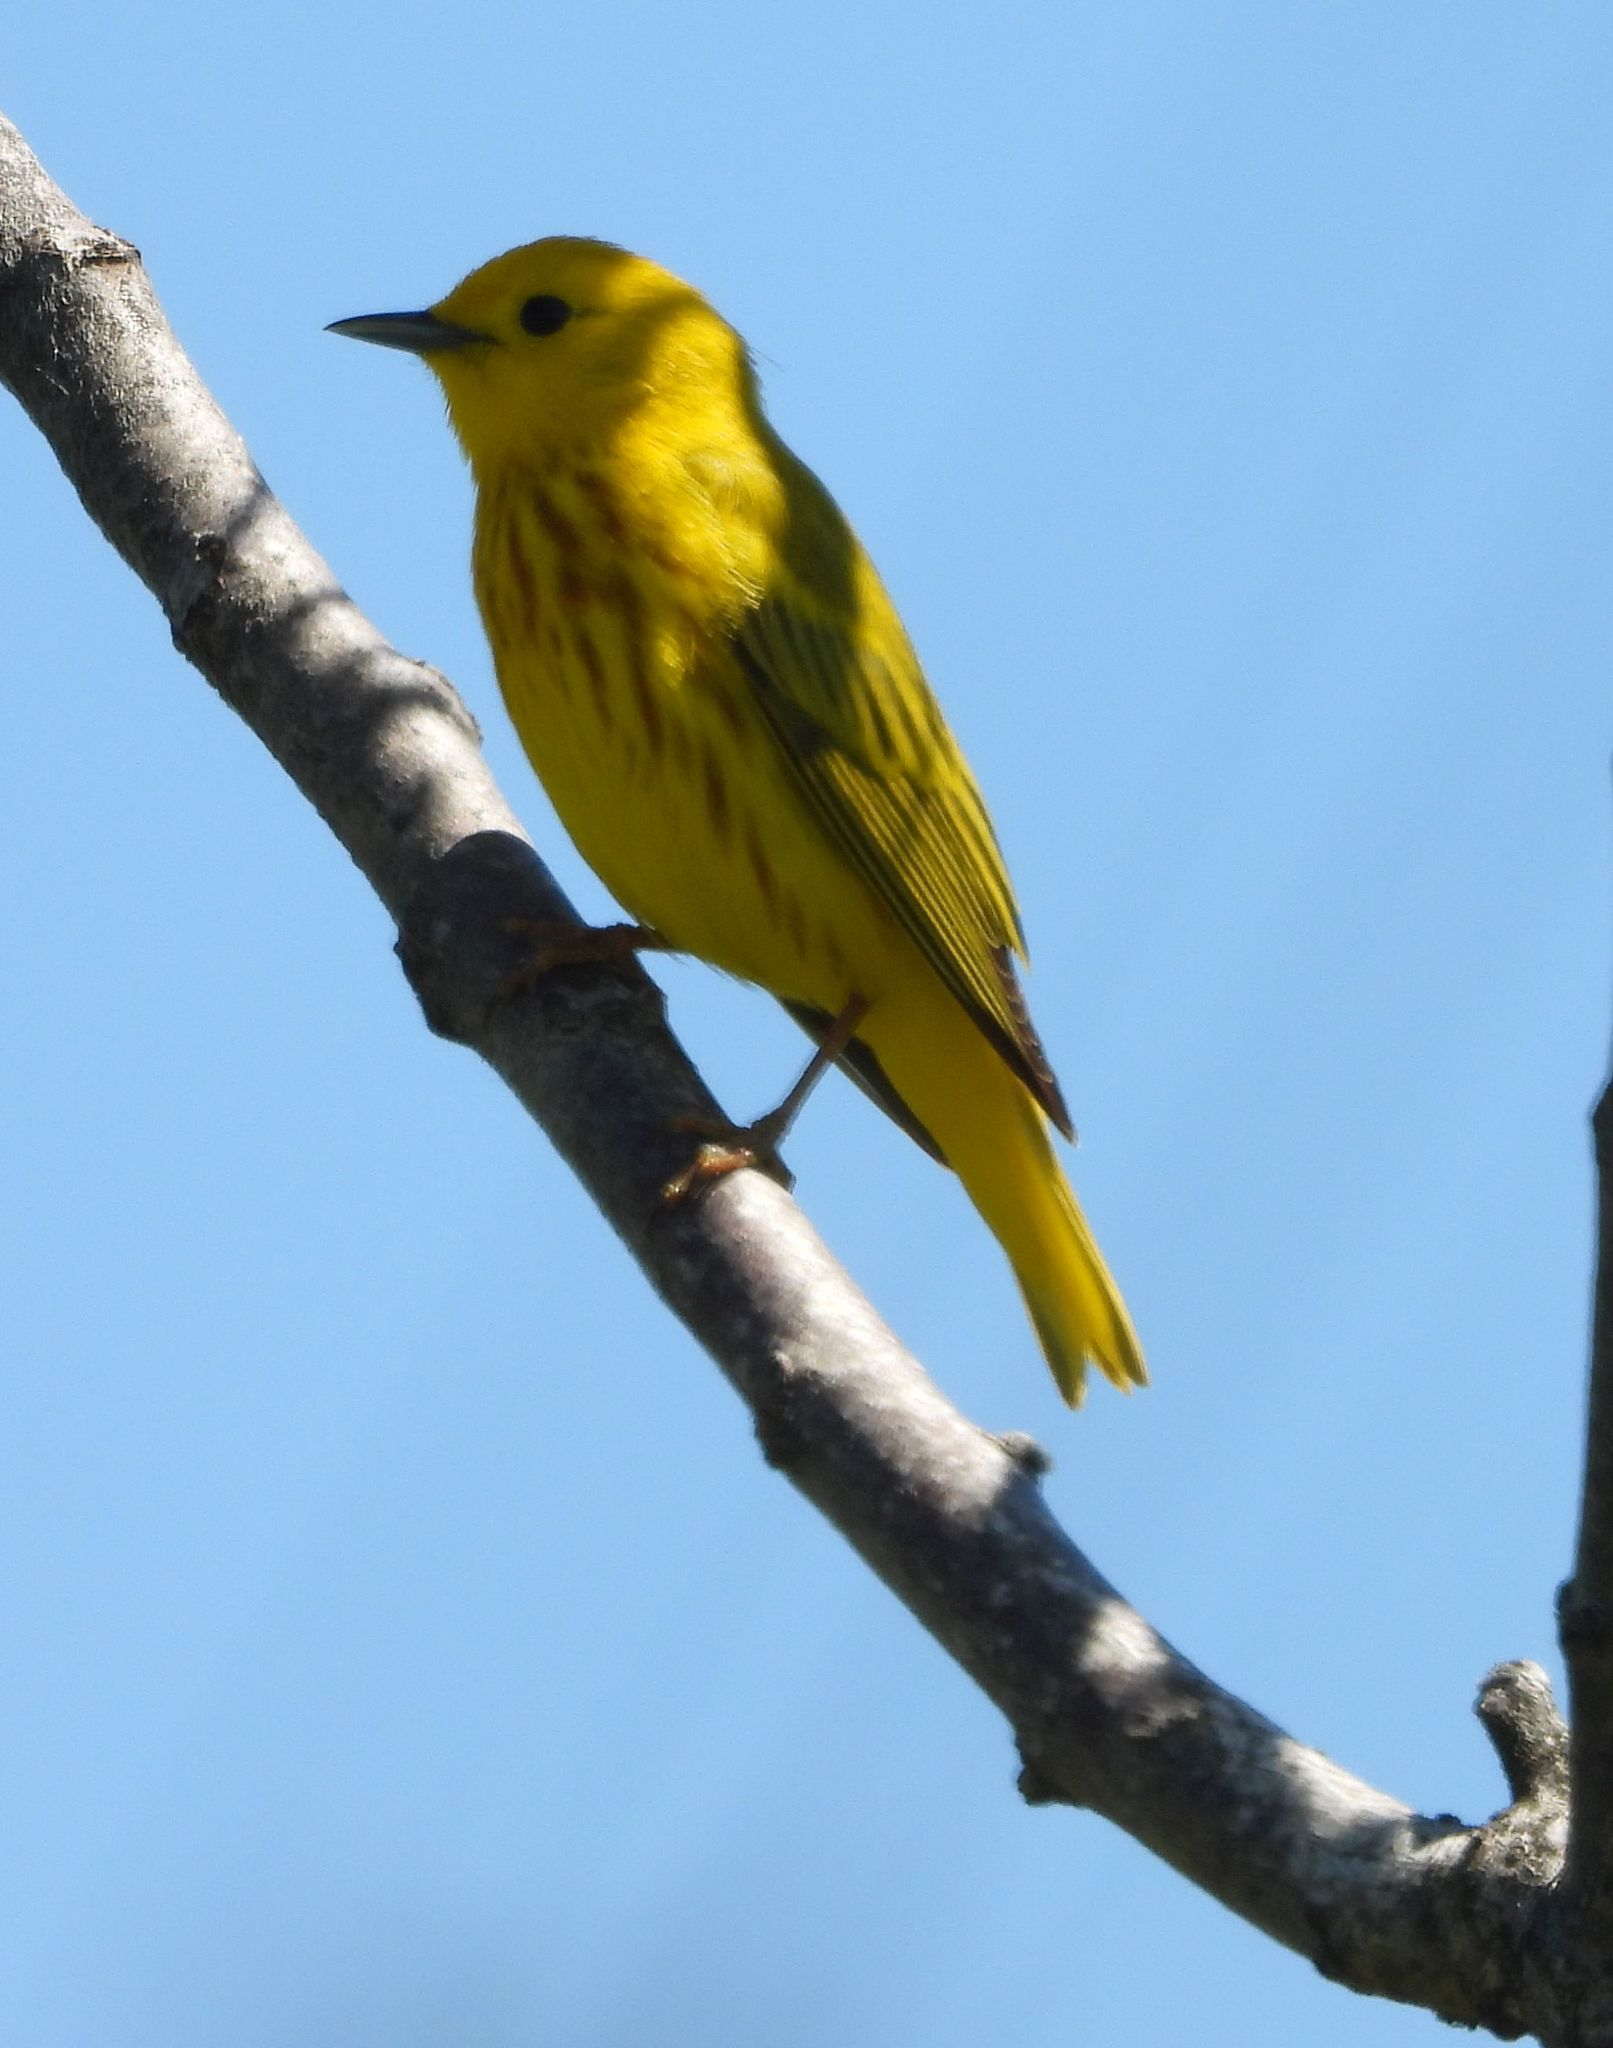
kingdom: Animalia
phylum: Chordata
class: Aves
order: Passeriformes
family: Parulidae
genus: Setophaga
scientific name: Setophaga petechia
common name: Yellow warbler
